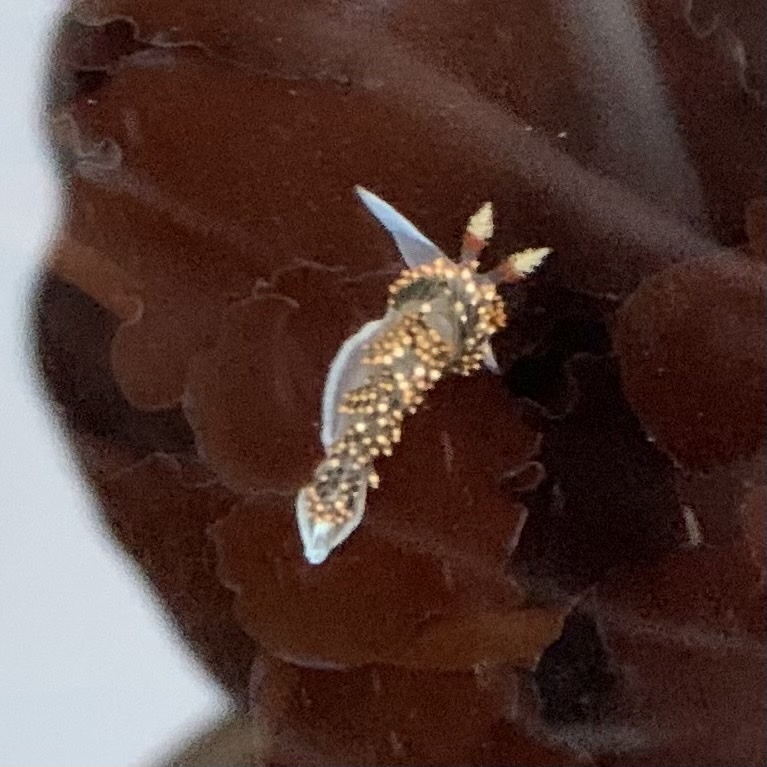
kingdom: Animalia
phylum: Mollusca
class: Gastropoda
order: Nudibranchia
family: Facelinidae
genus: Phidiana
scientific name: Phidiana hiltoni
